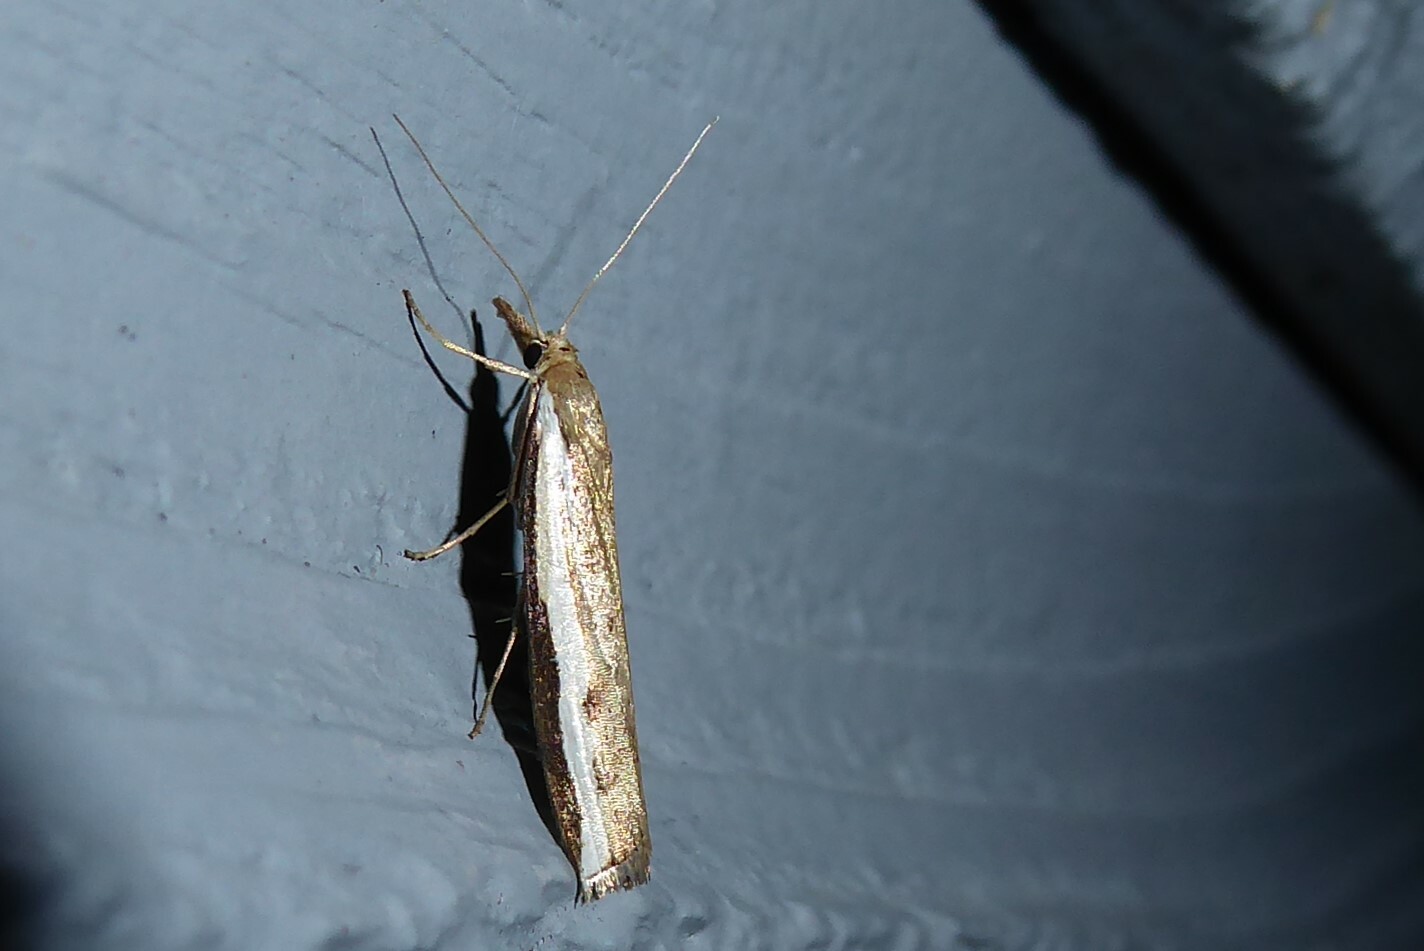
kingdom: Animalia
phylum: Arthropoda
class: Insecta
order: Lepidoptera
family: Crambidae
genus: Orocrambus
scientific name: Orocrambus flexuosellus
